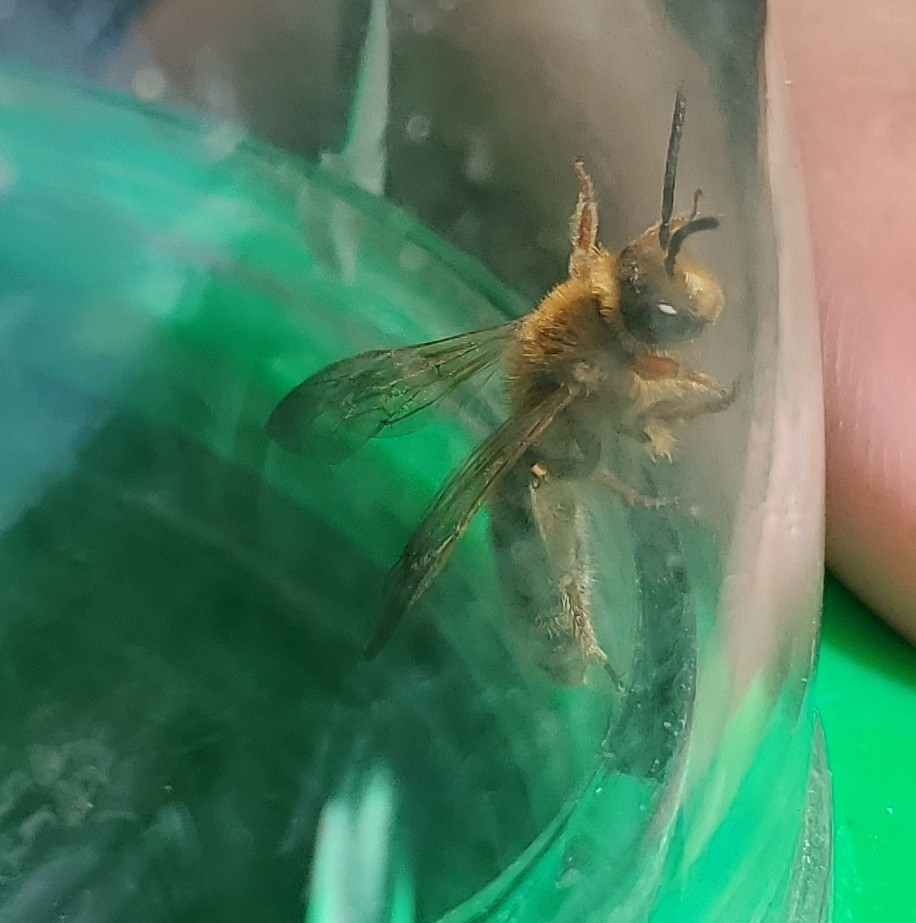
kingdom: Animalia
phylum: Arthropoda
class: Insecta
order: Hymenoptera
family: Andrenidae
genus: Andrena
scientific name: Andrena prunorum
